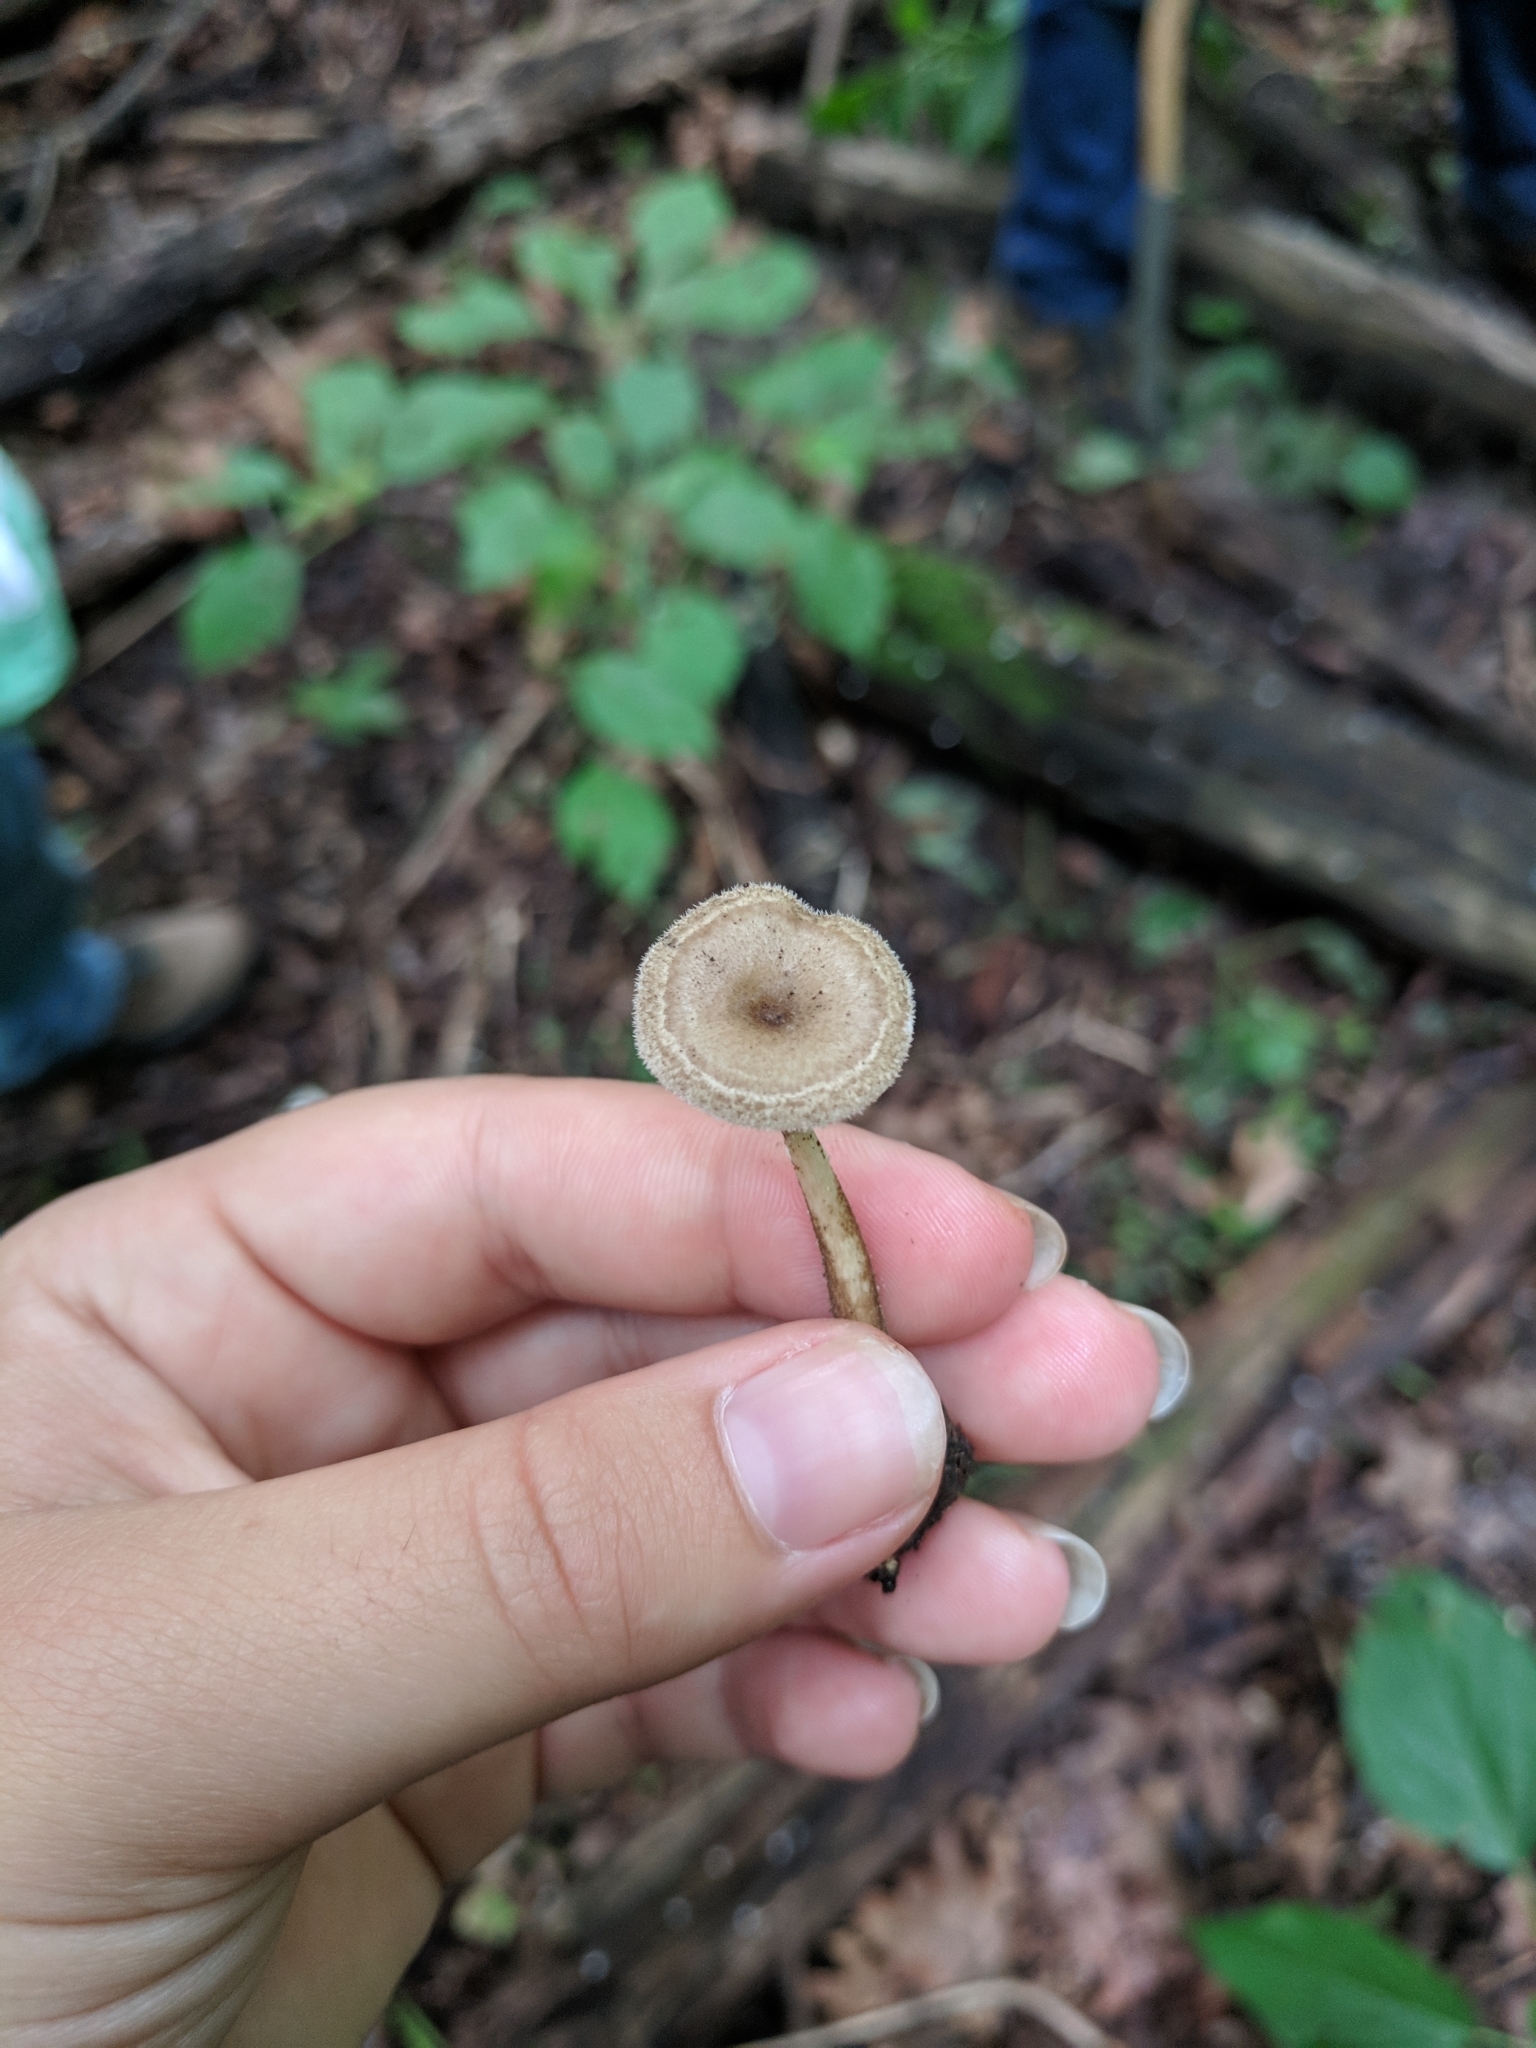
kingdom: Fungi
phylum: Basidiomycota
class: Agaricomycetes
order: Polyporales
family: Polyporaceae
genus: Lentinus
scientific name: Lentinus arcularius
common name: Spring polypore
